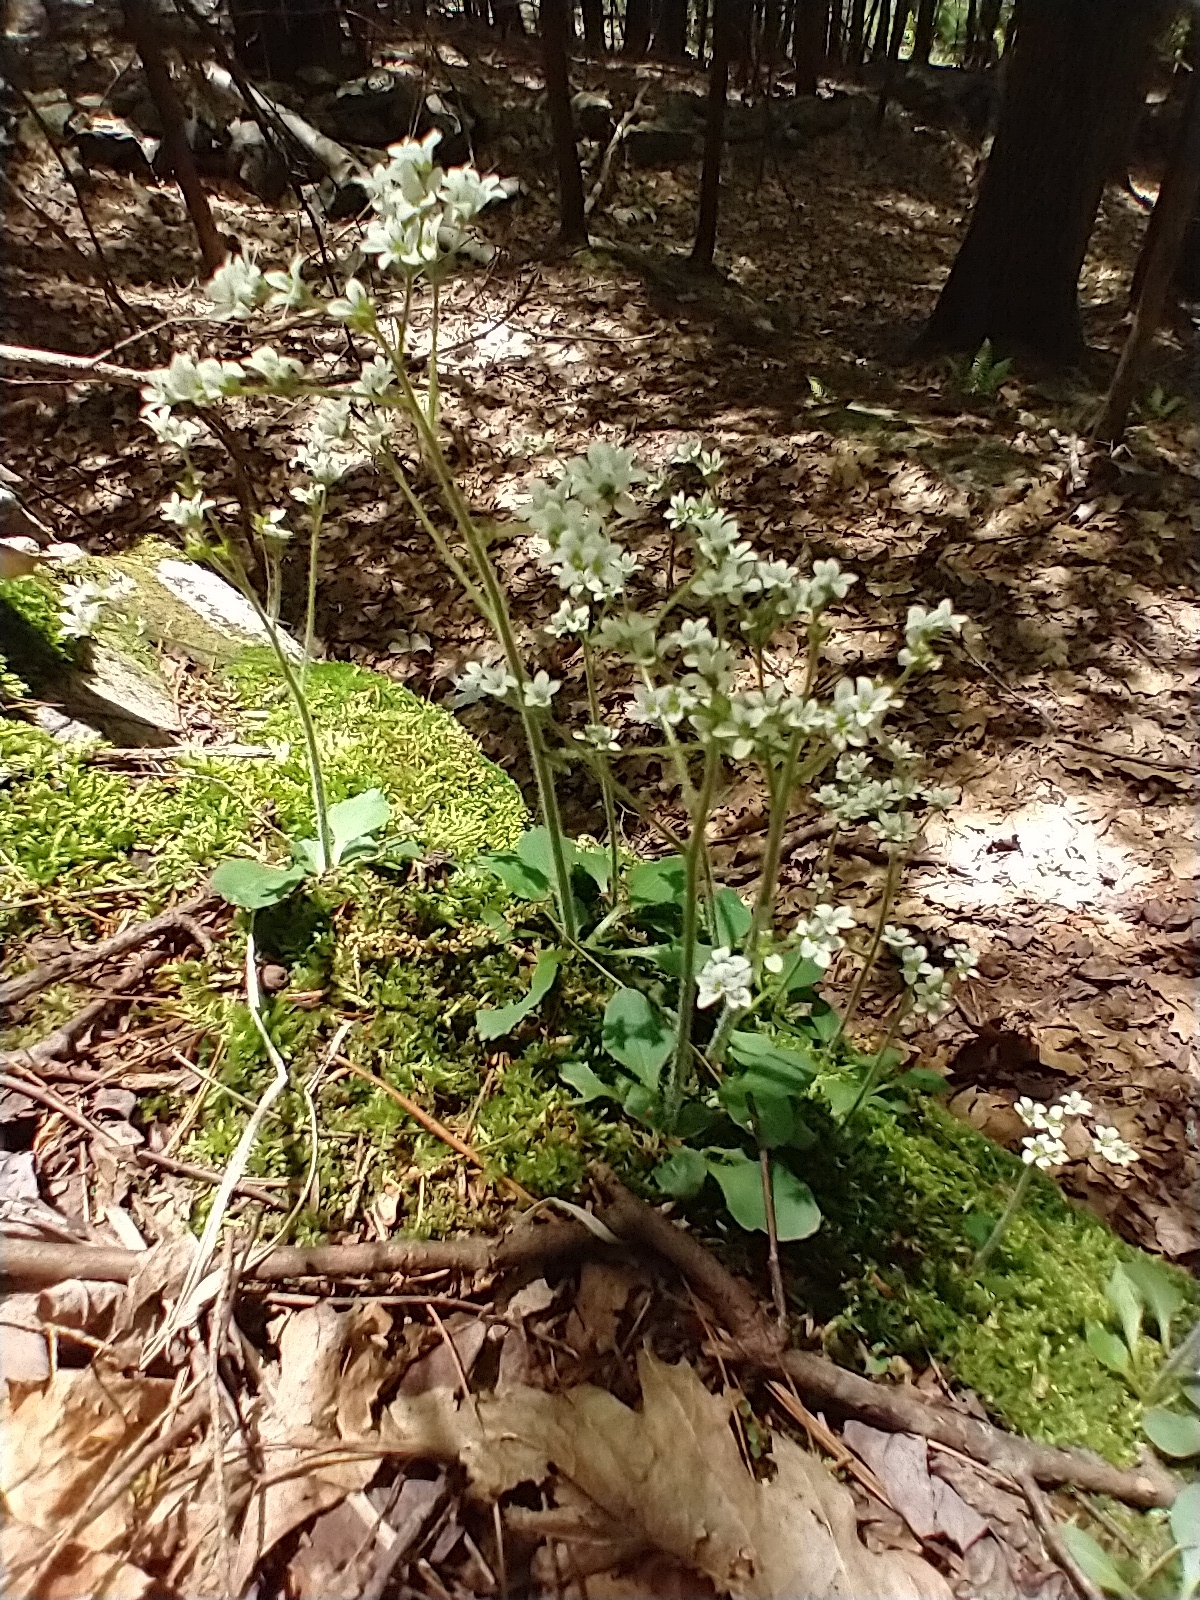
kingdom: Plantae
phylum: Tracheophyta
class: Magnoliopsida
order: Saxifragales
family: Saxifragaceae
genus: Micranthes
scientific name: Micranthes virginiensis
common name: Early saxifrage
